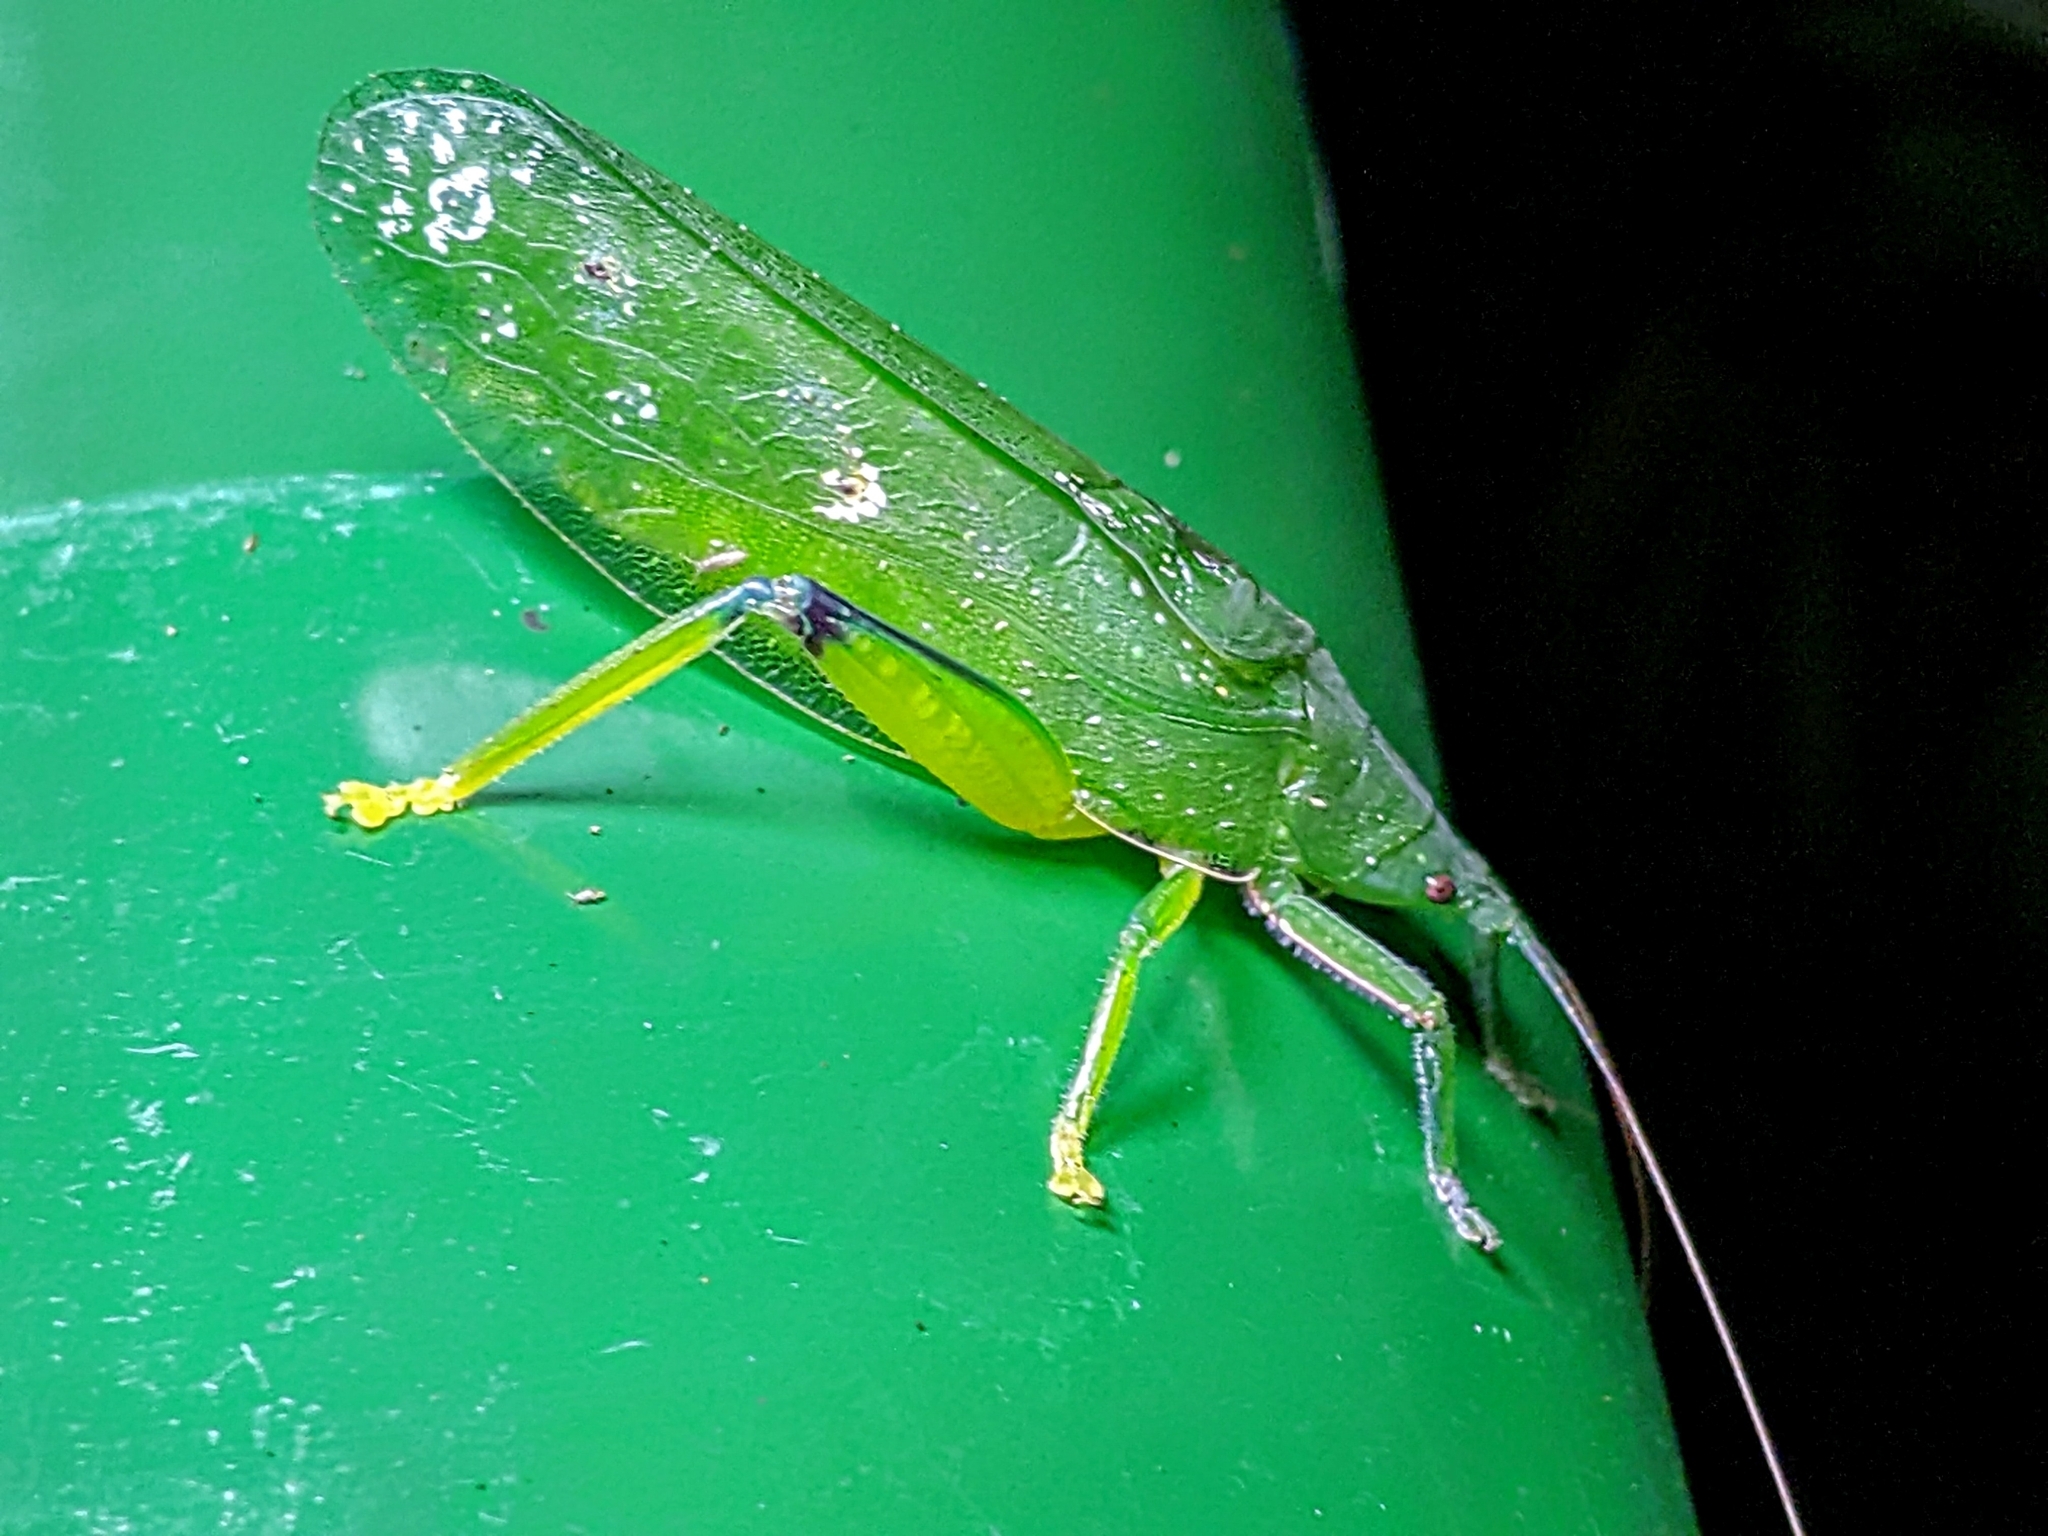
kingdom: Animalia
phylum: Arthropoda
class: Insecta
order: Orthoptera
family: Tettigoniidae
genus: Phyllomimus
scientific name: Phyllomimus inversus
